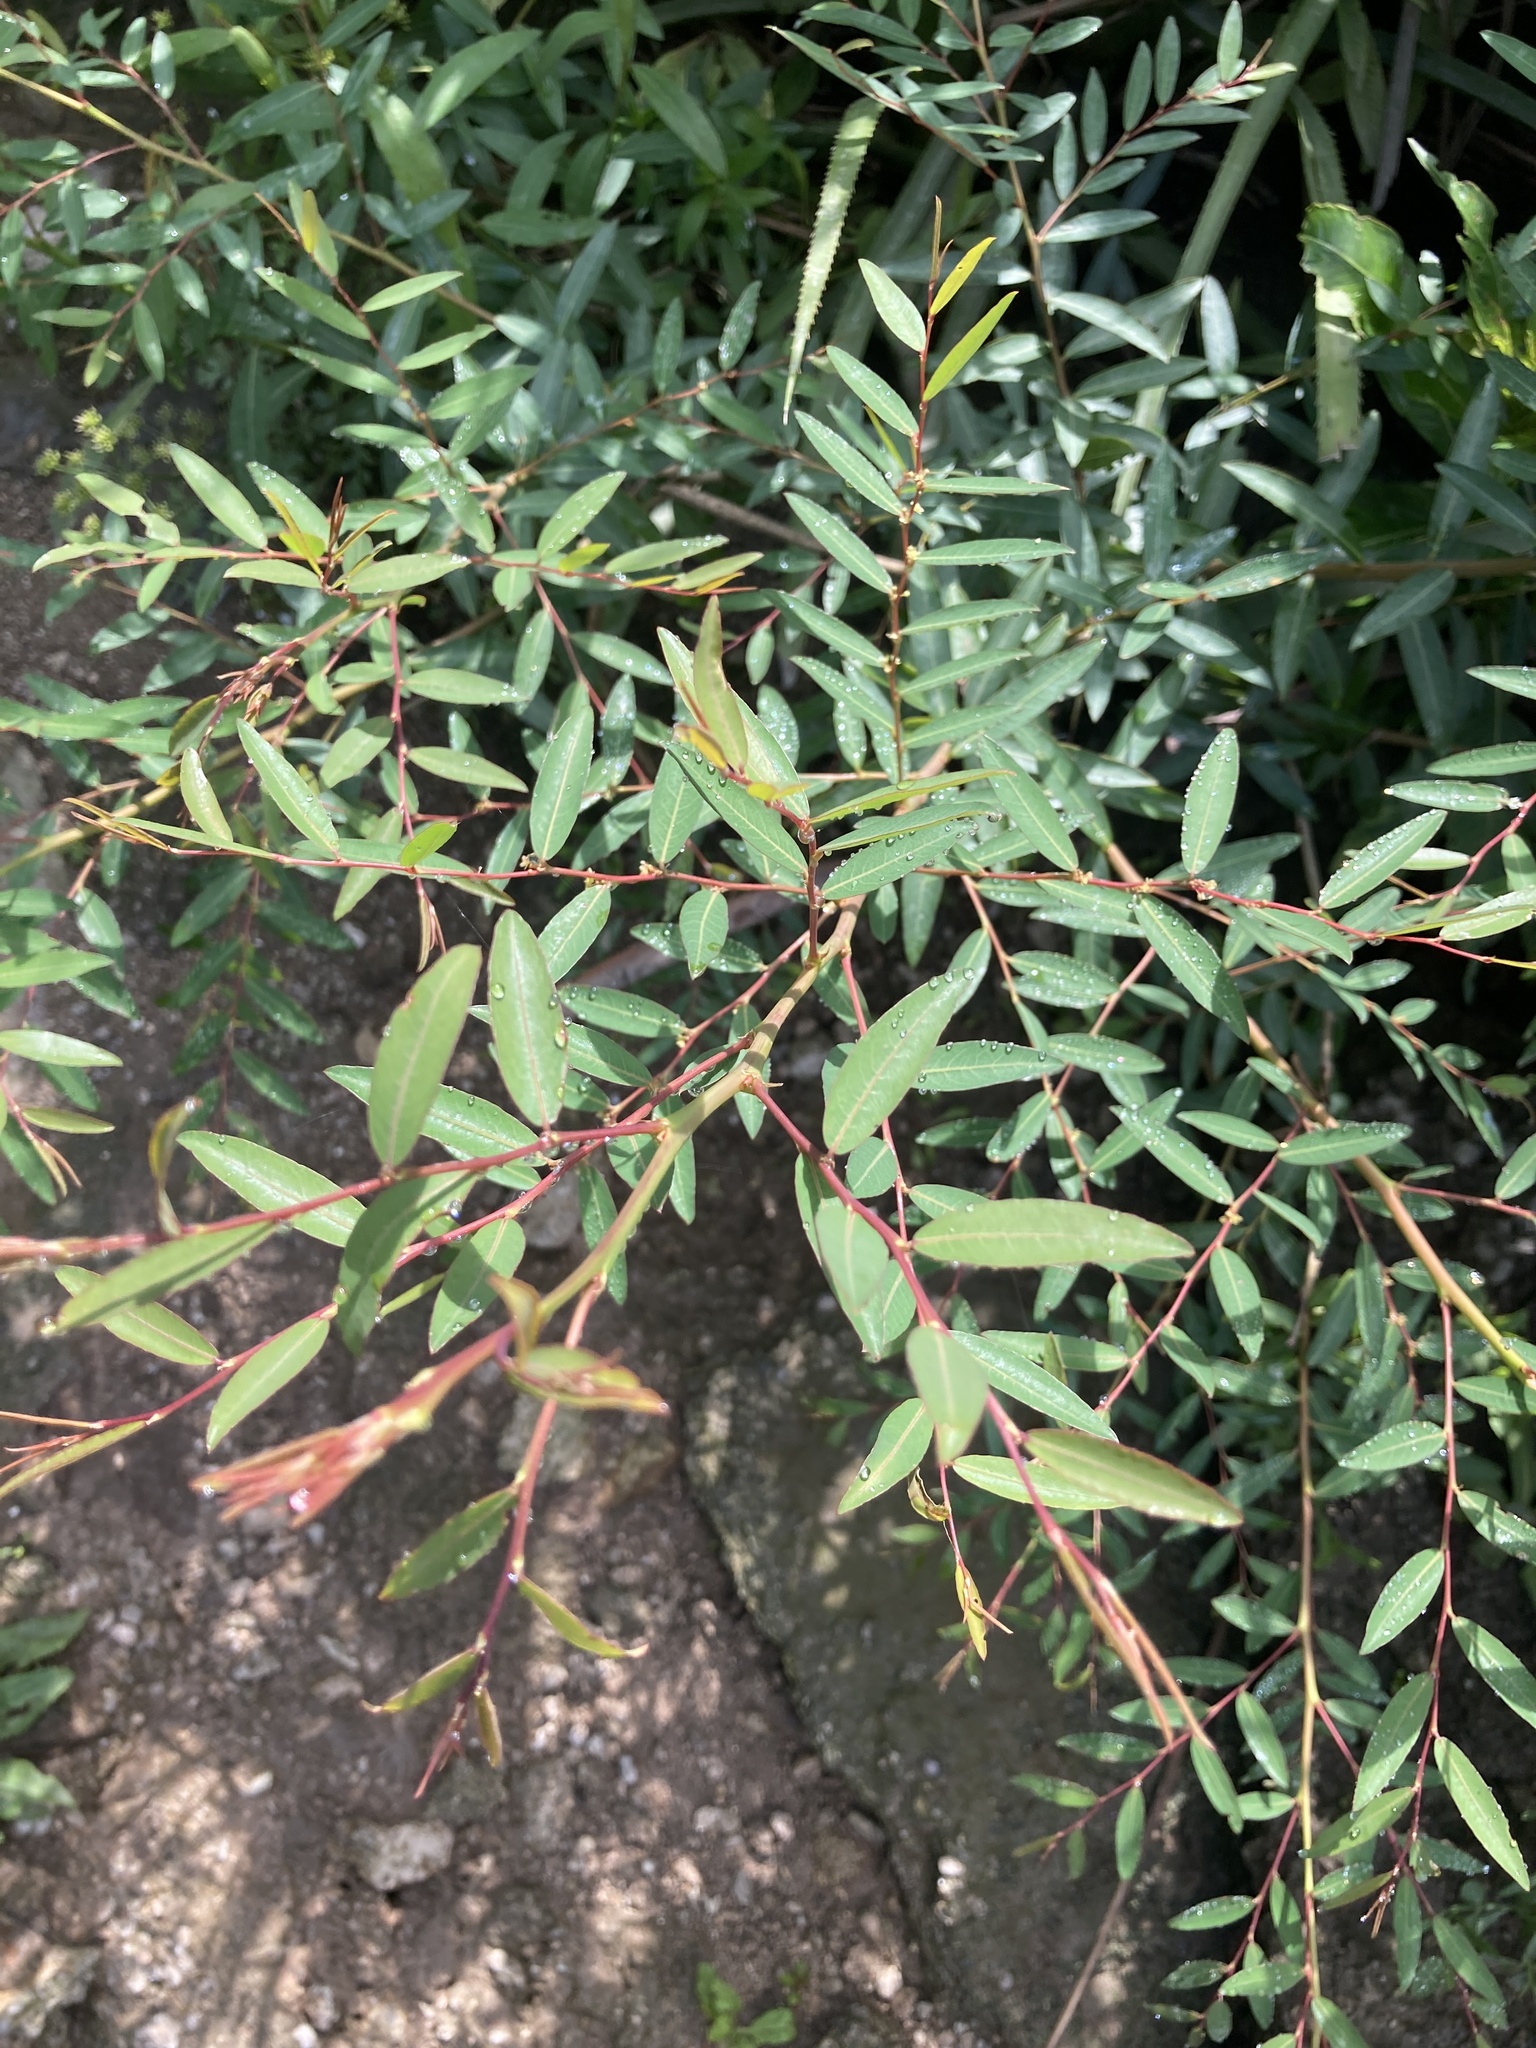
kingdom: Plantae
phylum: Tracheophyta
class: Magnoliopsida
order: Malpighiales
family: Phyllanthaceae
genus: Phyllanthus
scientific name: Phyllanthus sellowianus
